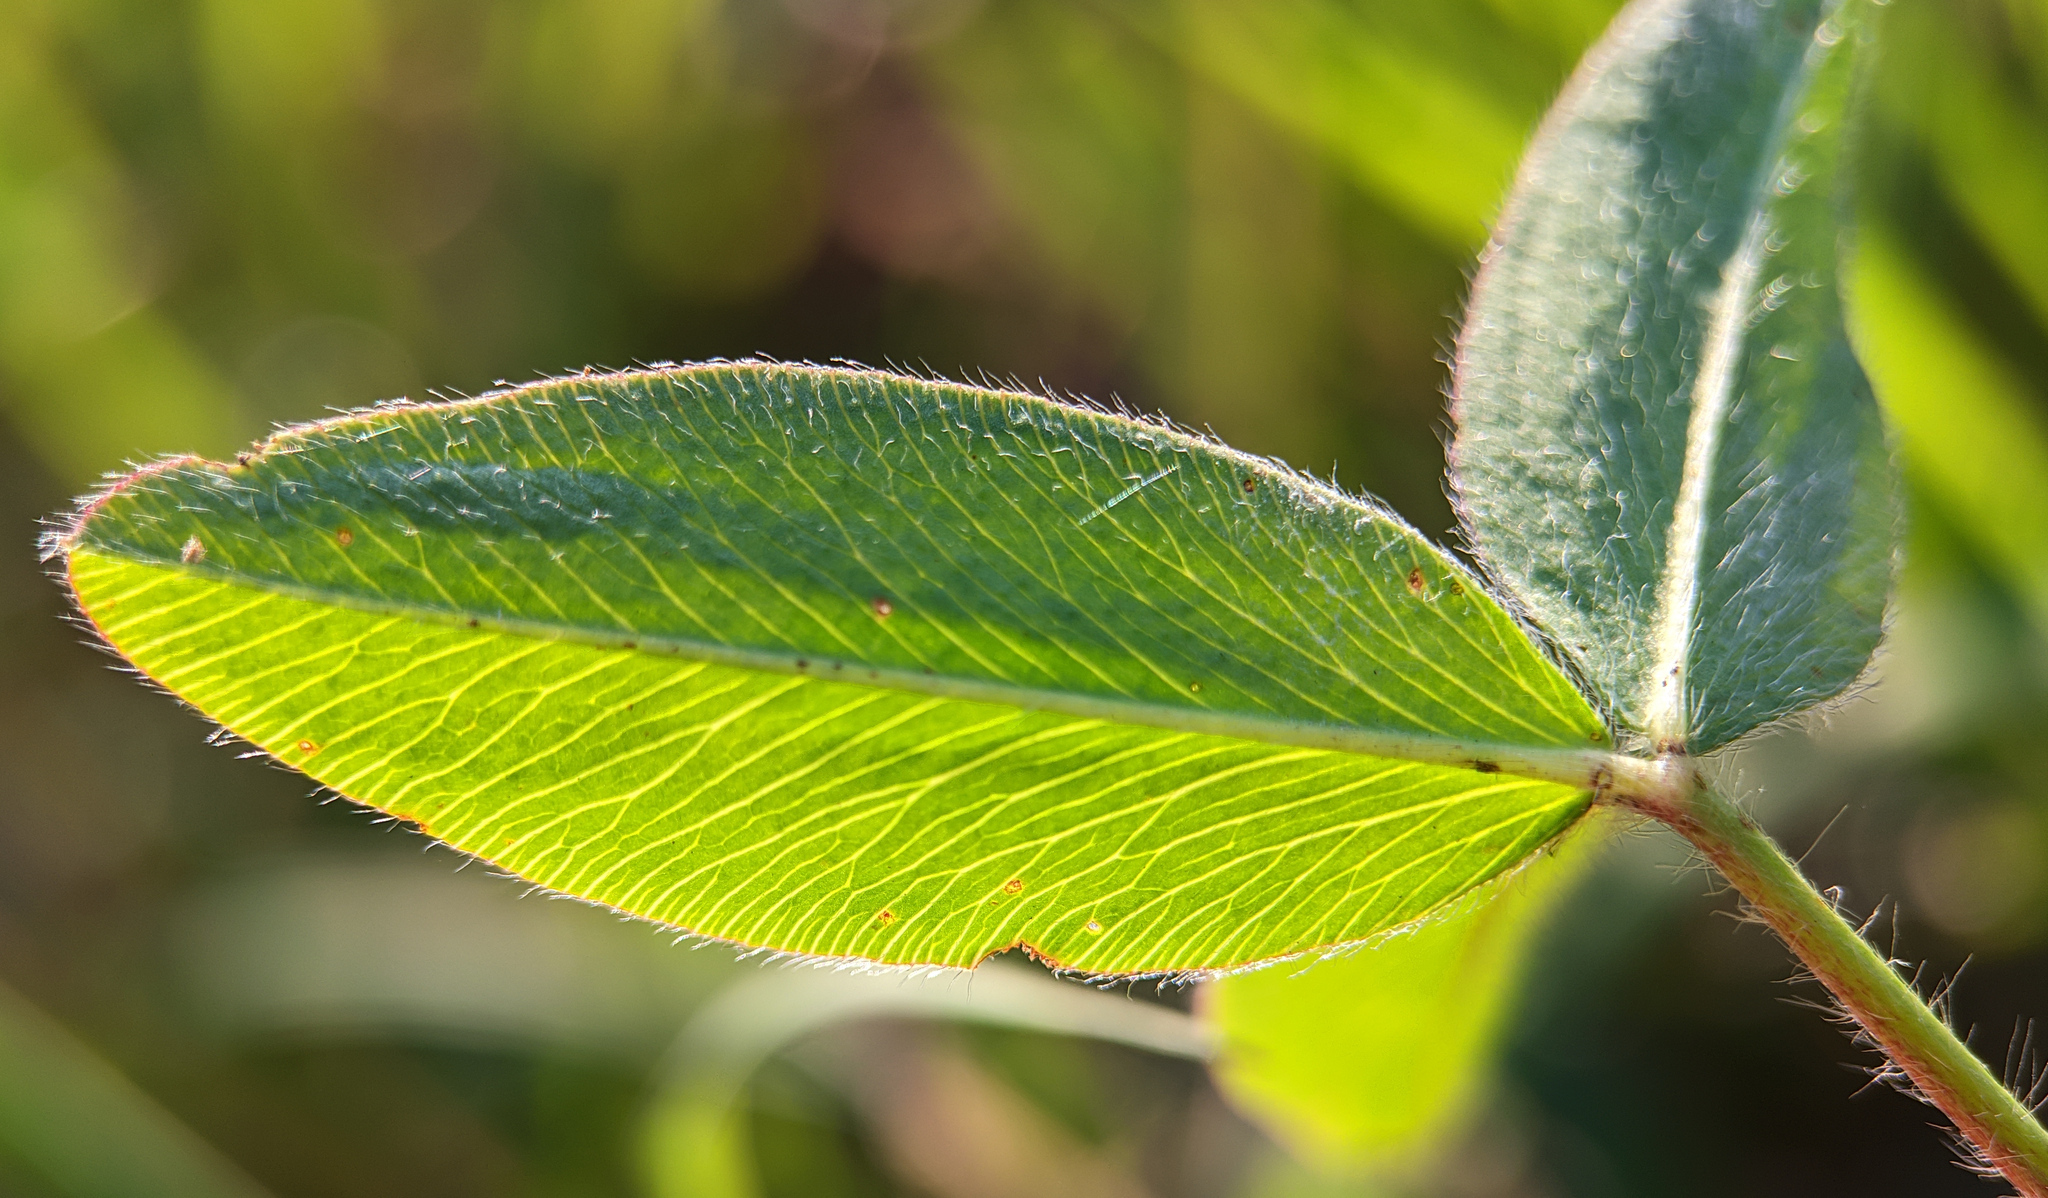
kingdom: Plantae
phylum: Tracheophyta
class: Magnoliopsida
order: Fabales
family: Fabaceae
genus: Trifolium
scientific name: Trifolium pratense
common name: Red clover
